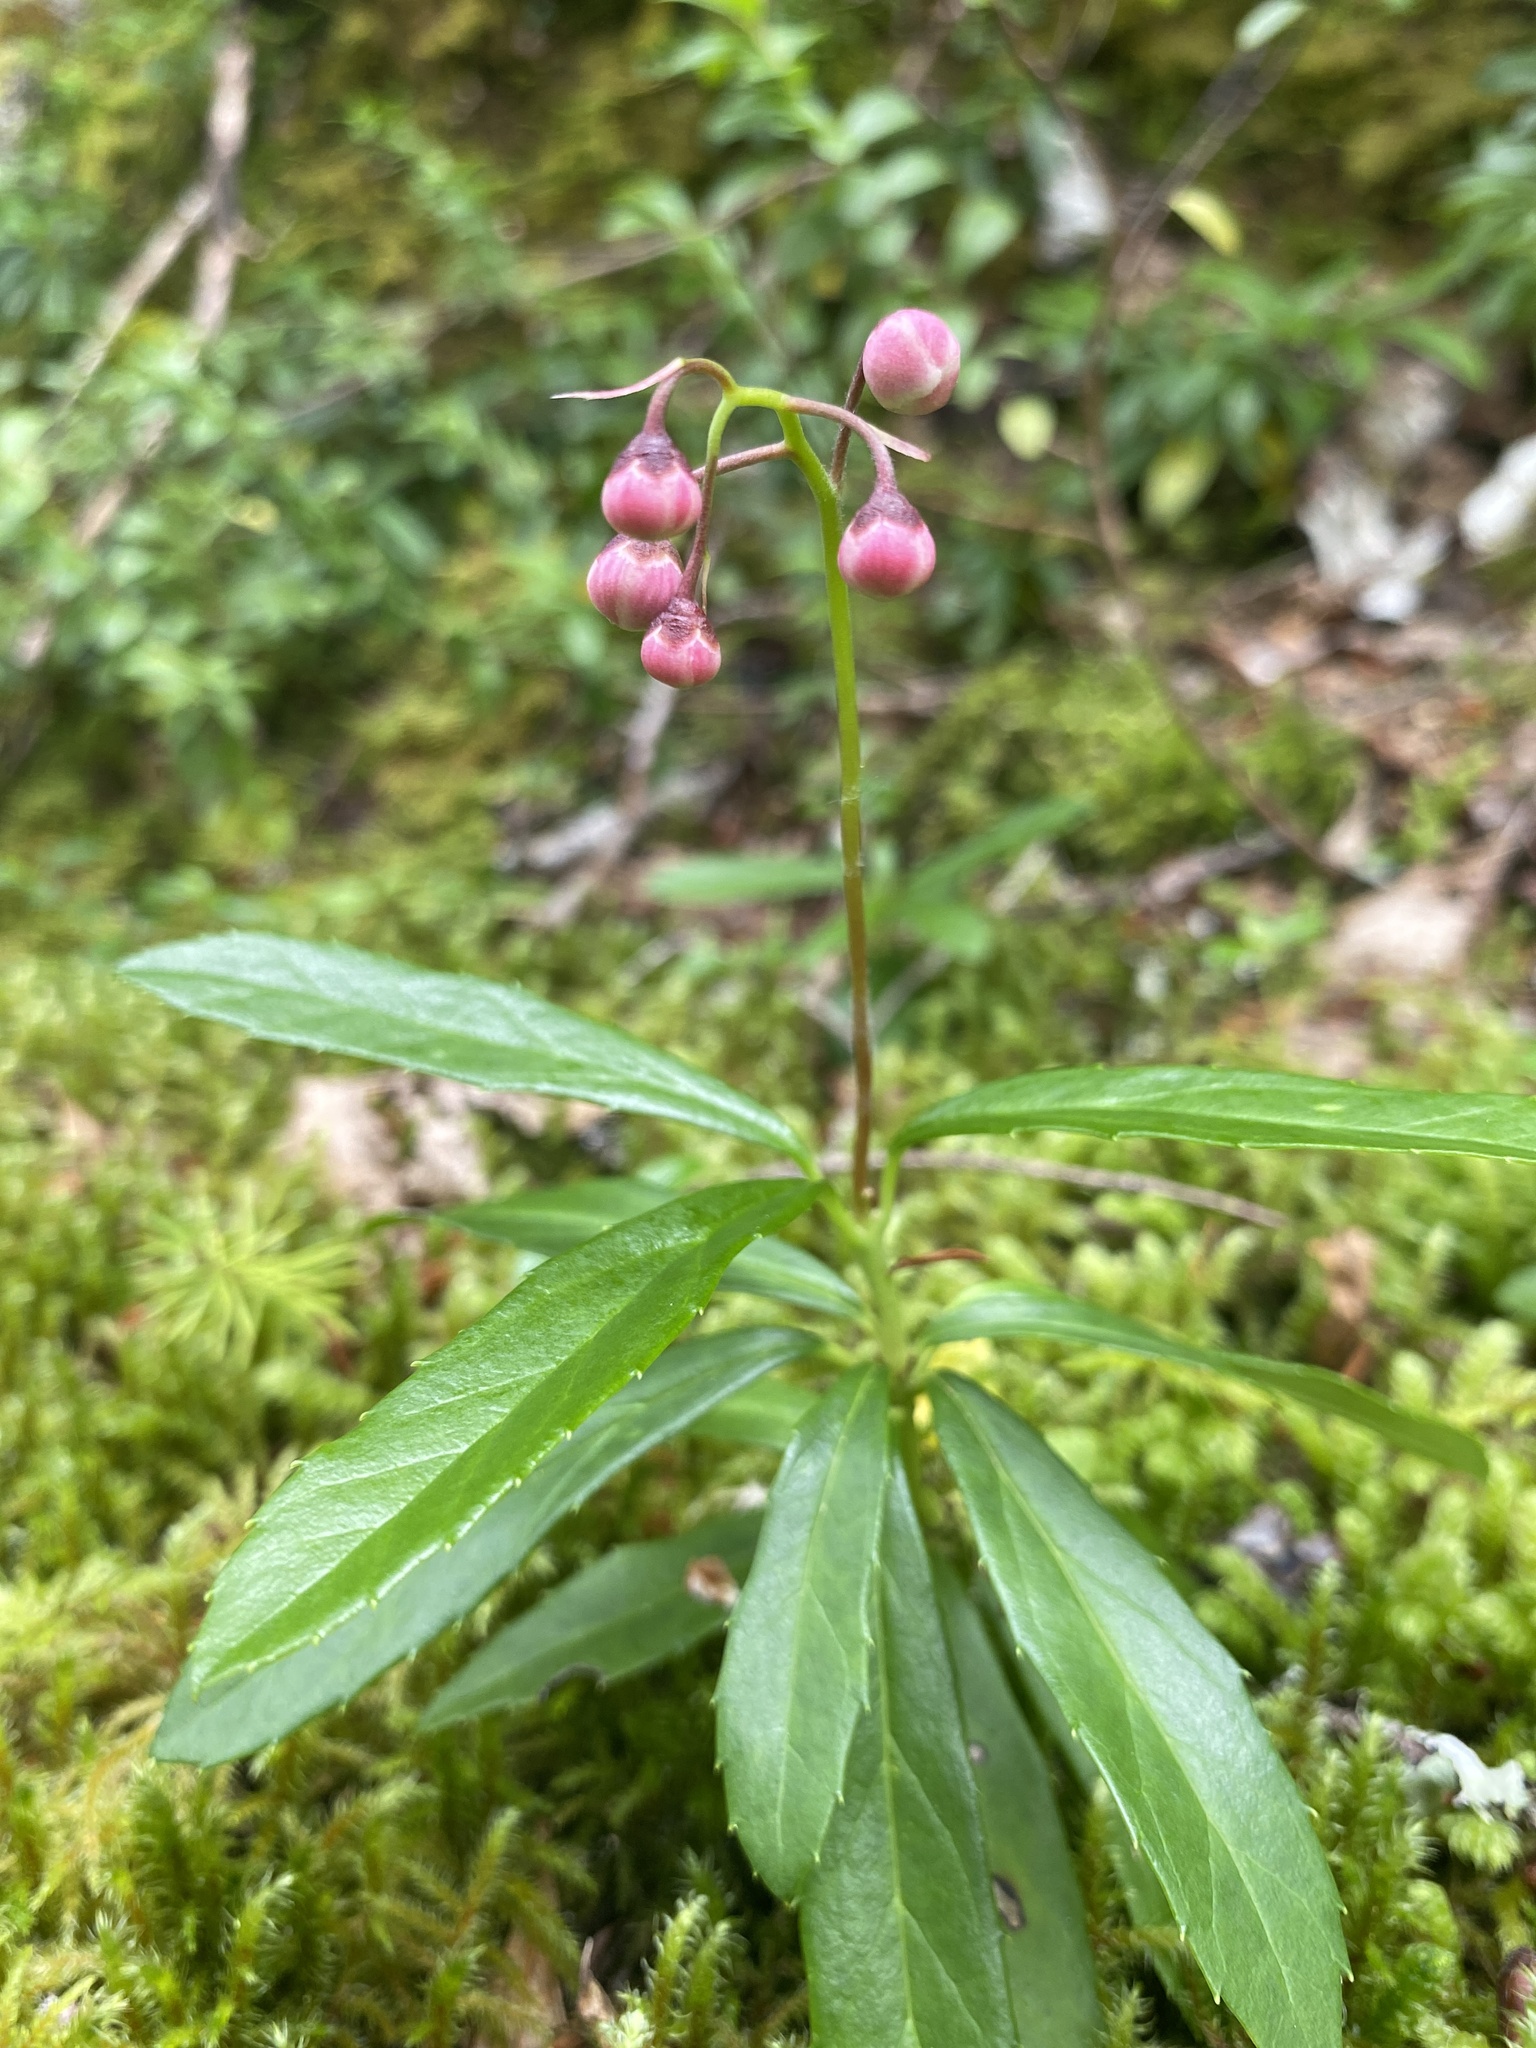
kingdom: Plantae
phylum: Tracheophyta
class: Magnoliopsida
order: Ericales
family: Ericaceae
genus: Chimaphila
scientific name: Chimaphila umbellata
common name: Pipsissewa
